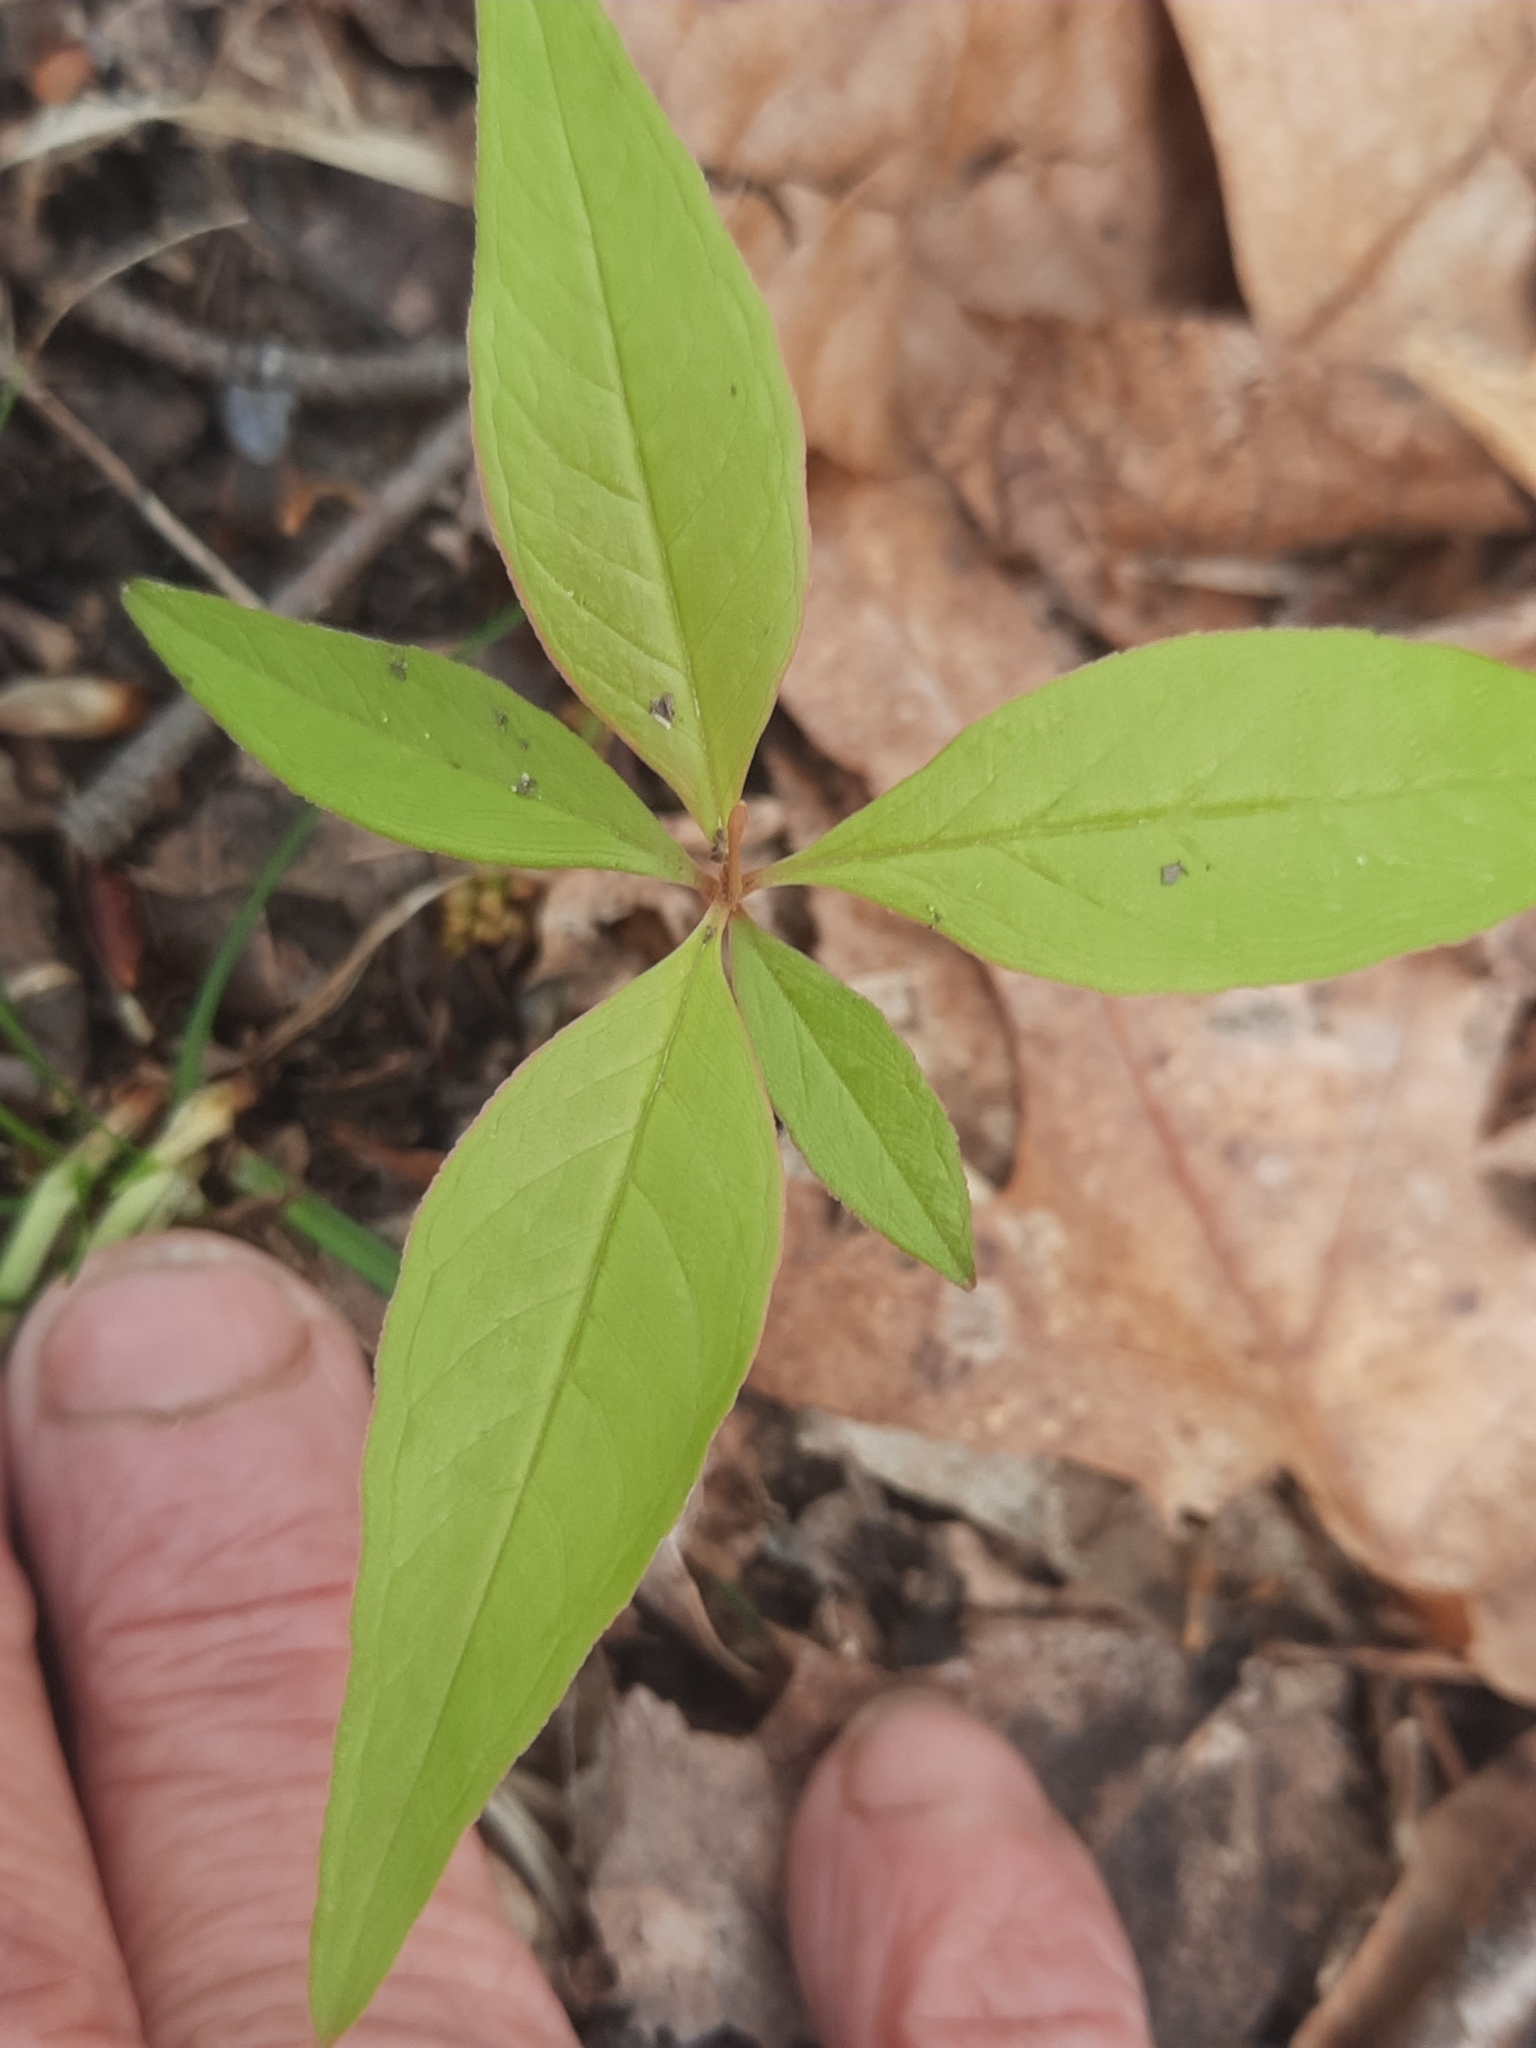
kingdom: Plantae
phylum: Tracheophyta
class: Liliopsida
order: Asparagales
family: Asparagaceae
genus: Maianthemum
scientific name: Maianthemum canadense
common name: False lily-of-the-valley
